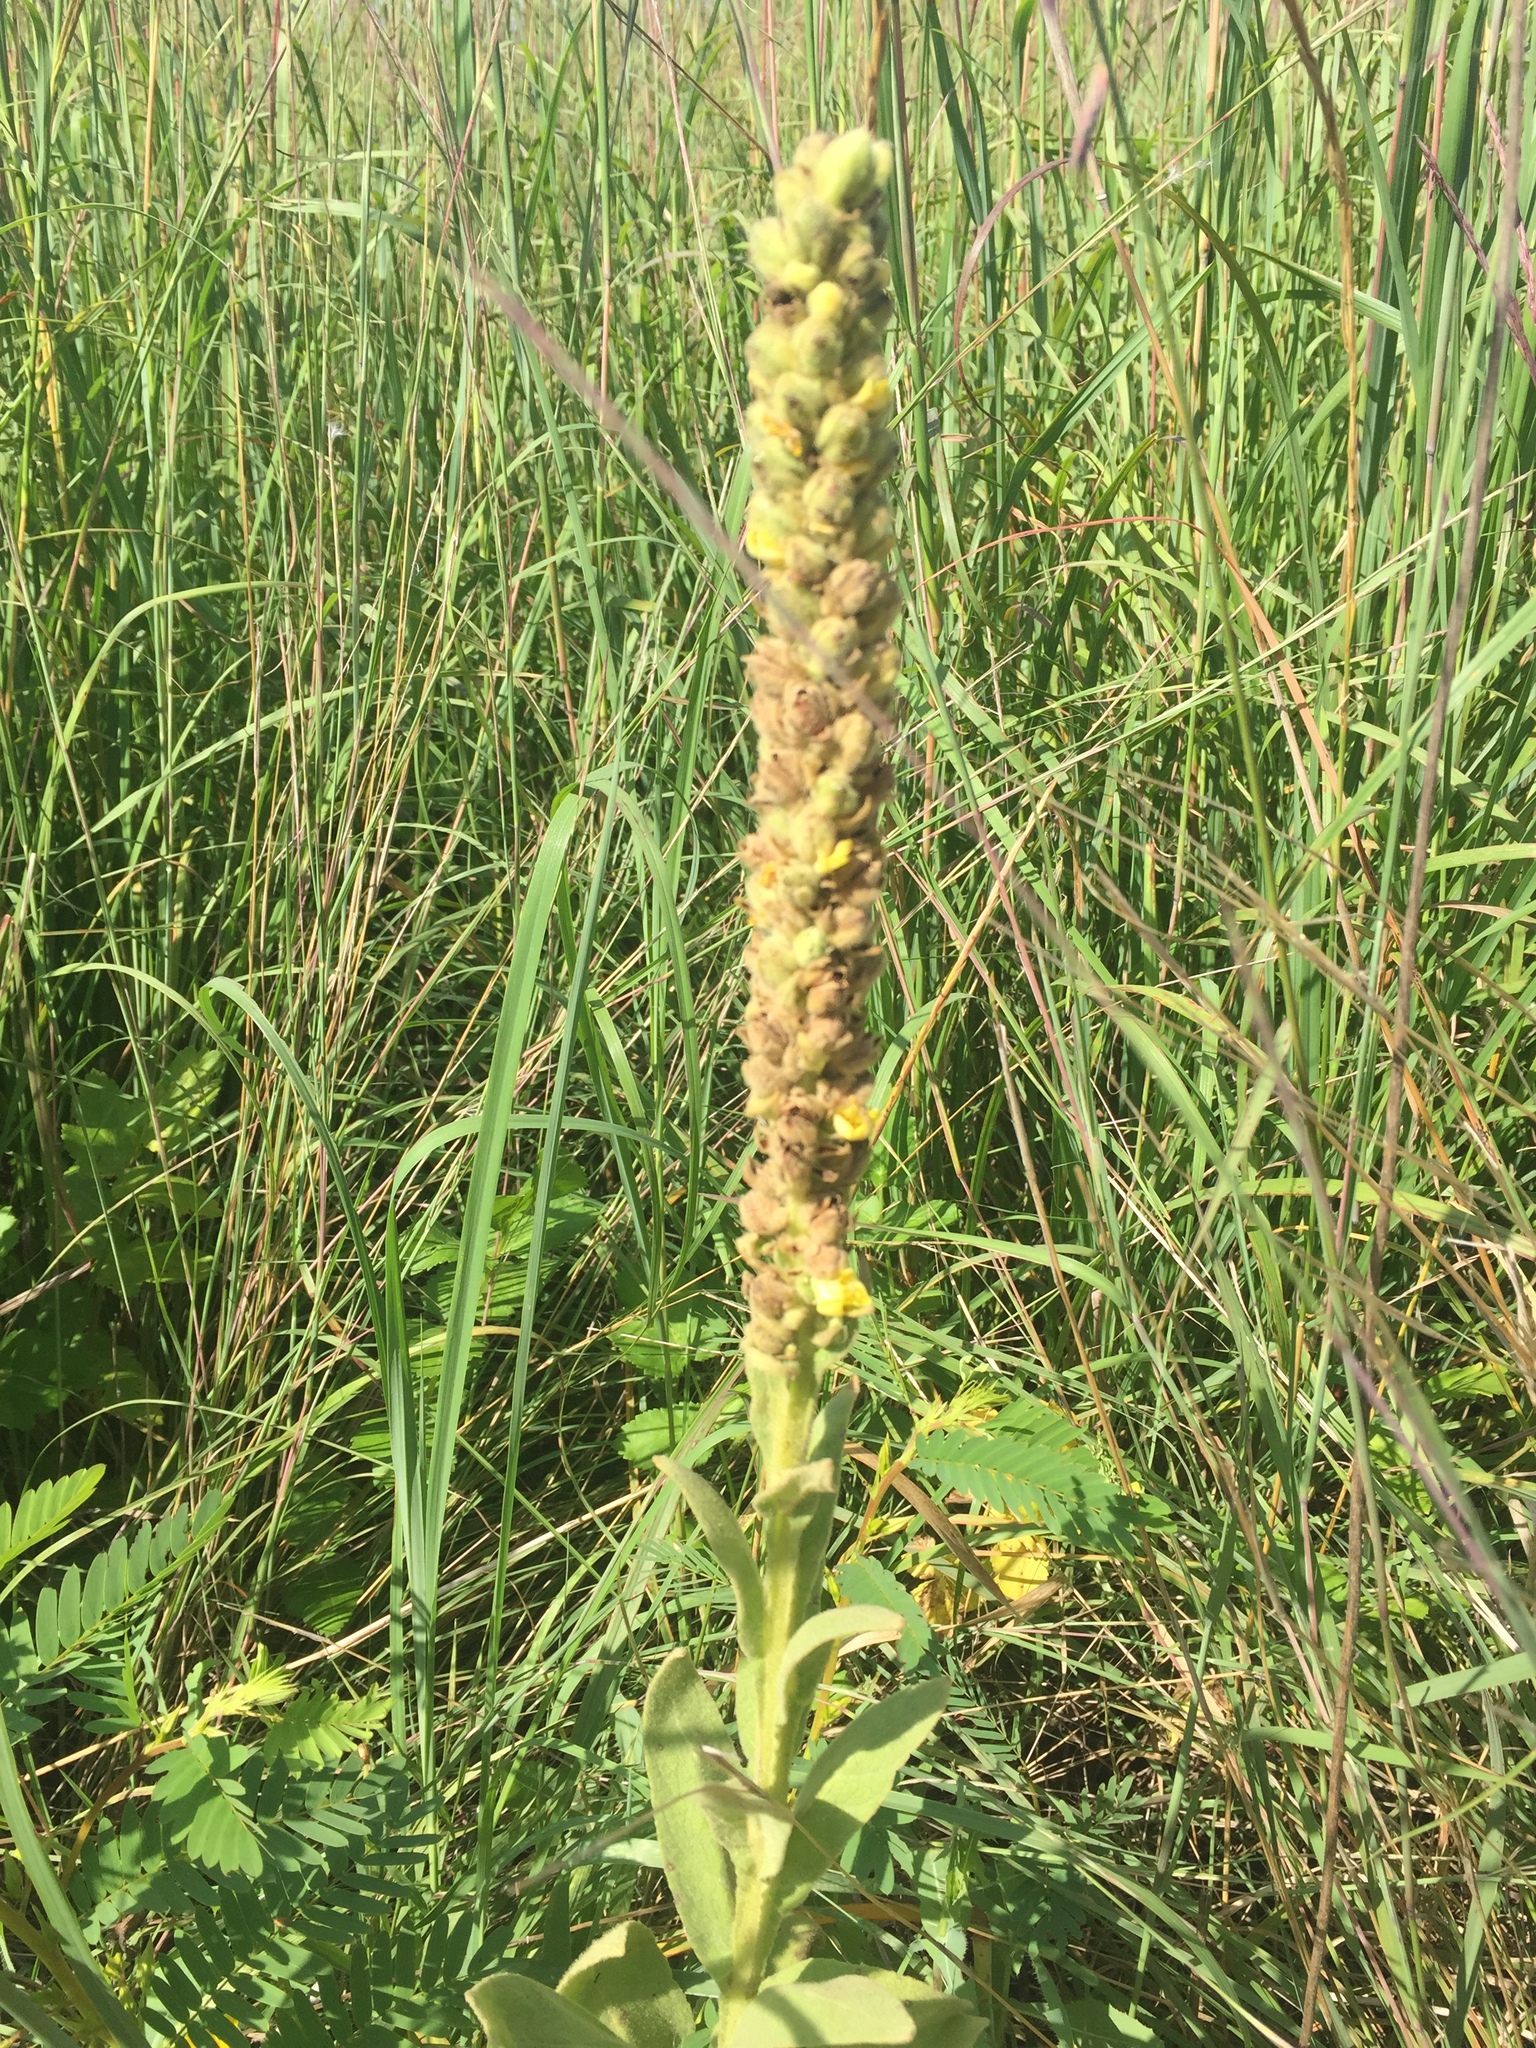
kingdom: Plantae
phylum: Tracheophyta
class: Magnoliopsida
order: Lamiales
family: Scrophulariaceae
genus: Verbascum
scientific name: Verbascum thapsus
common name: Common mullein
